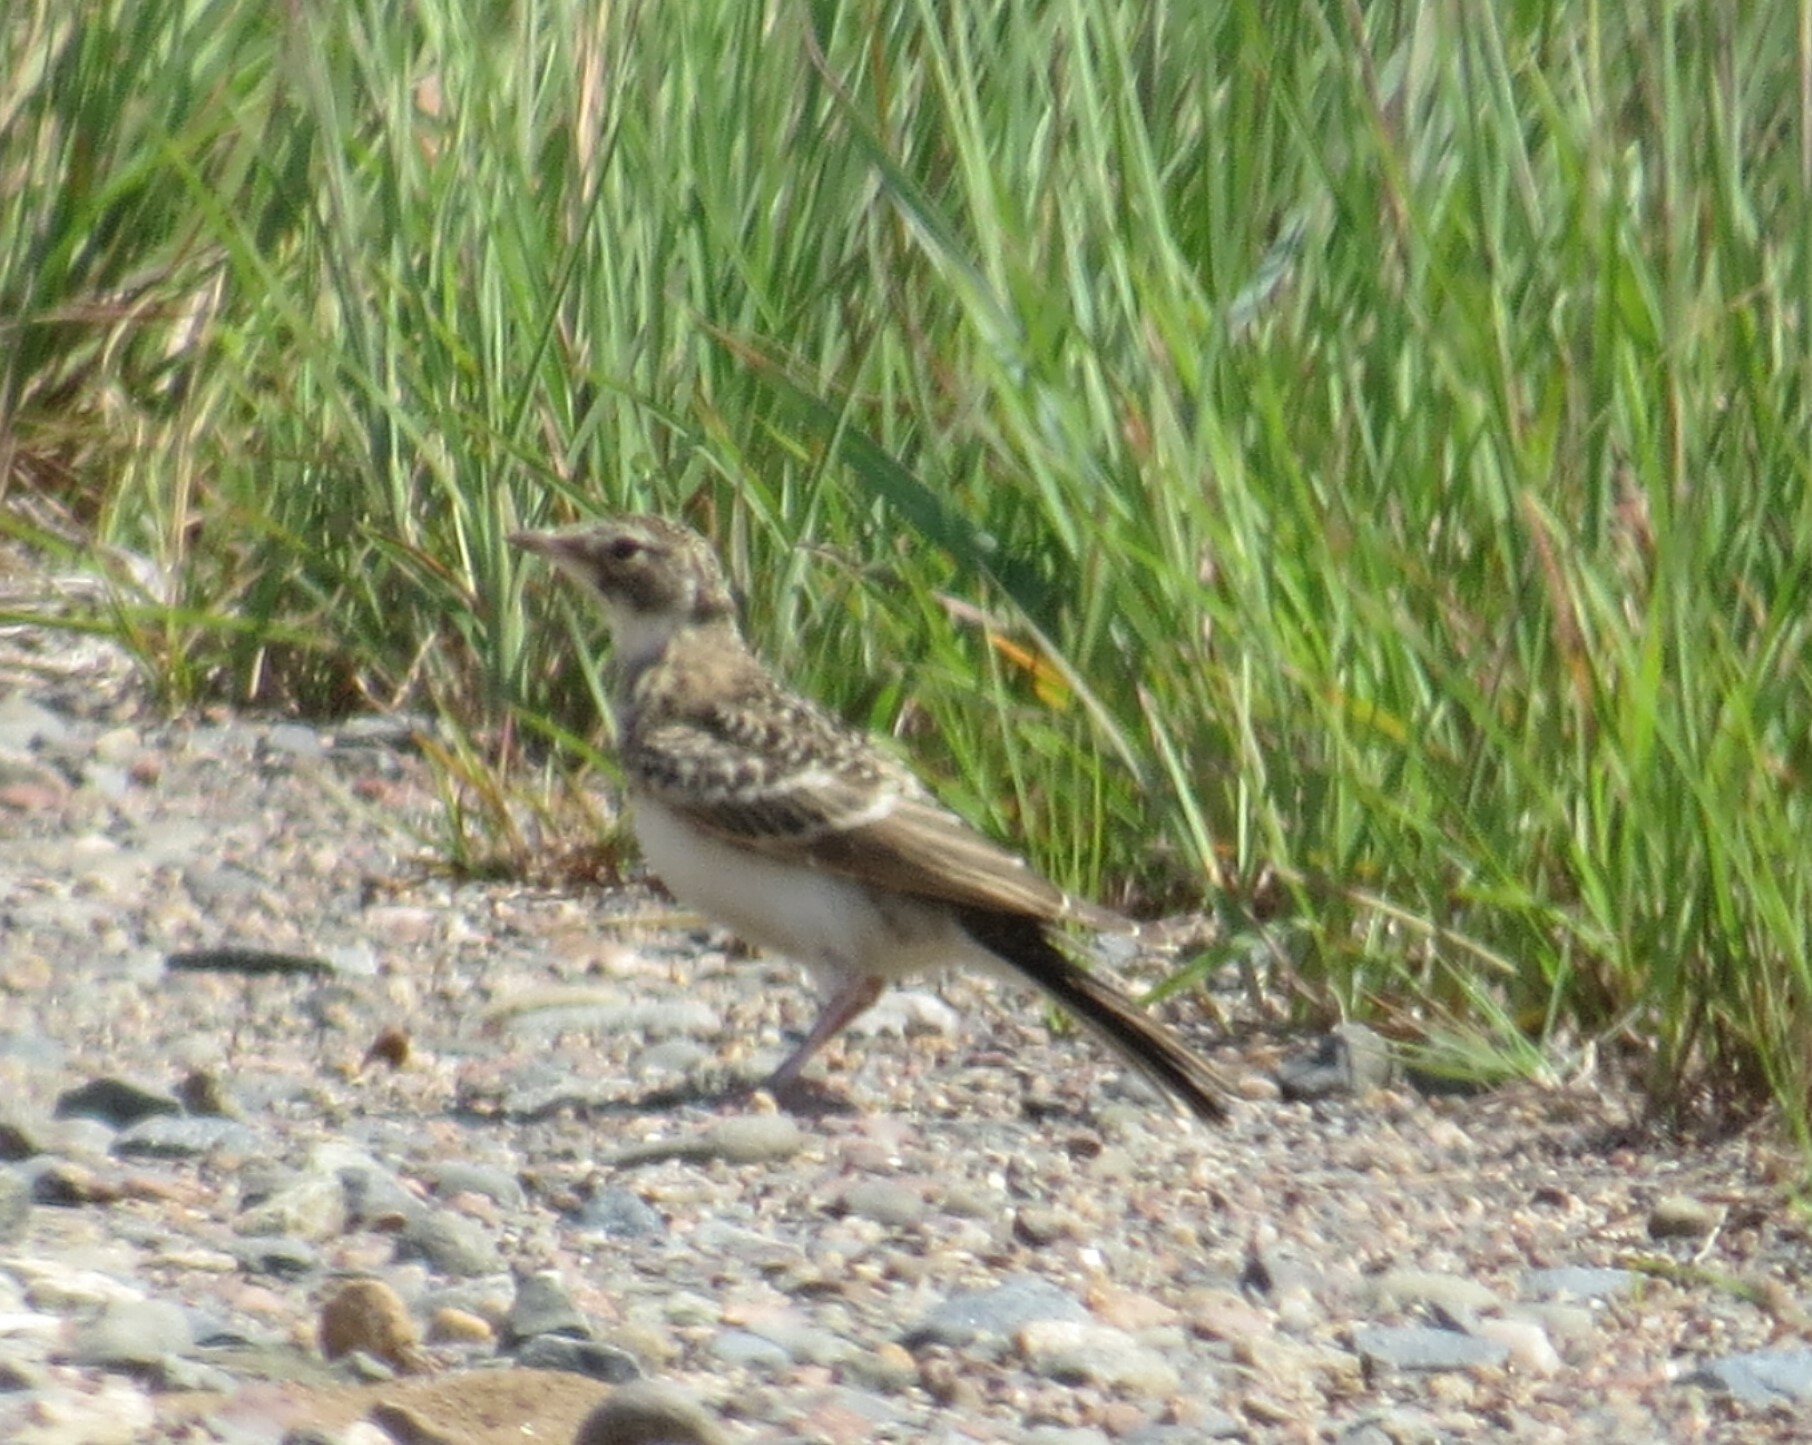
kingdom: Animalia
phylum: Chordata
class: Aves
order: Passeriformes
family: Alaudidae
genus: Eremophila
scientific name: Eremophila alpestris
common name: Horned lark
